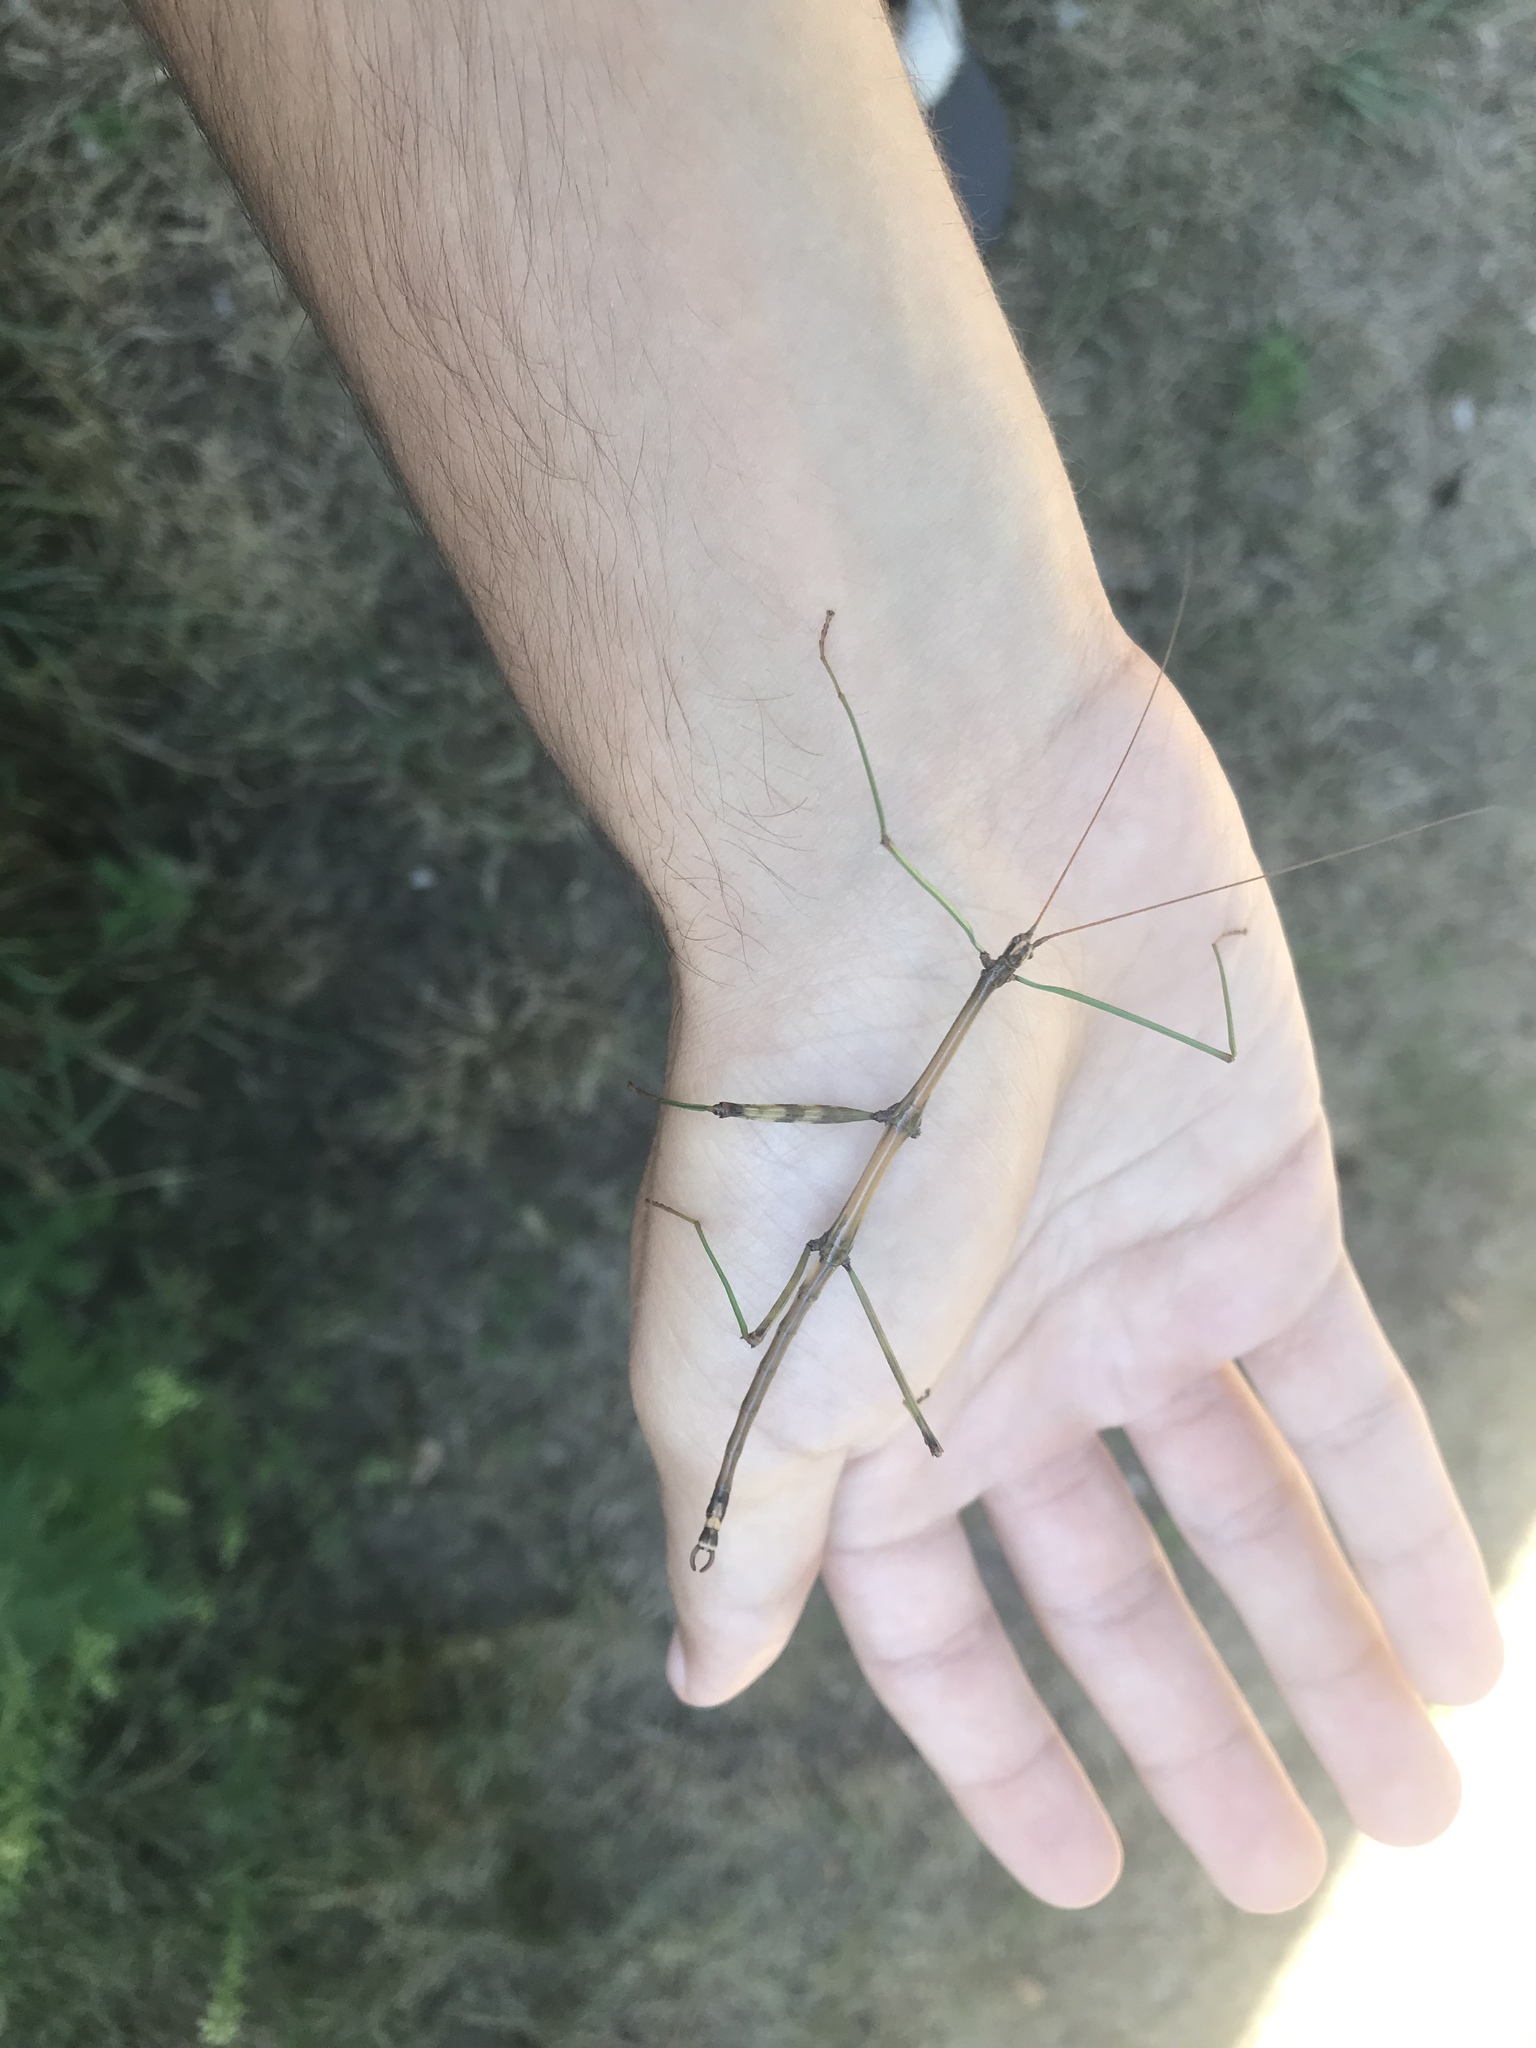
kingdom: Animalia
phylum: Arthropoda
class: Insecta
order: Phasmida
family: Diapheromeridae
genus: Diapheromera
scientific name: Diapheromera femorata
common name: Common american walkingstick
